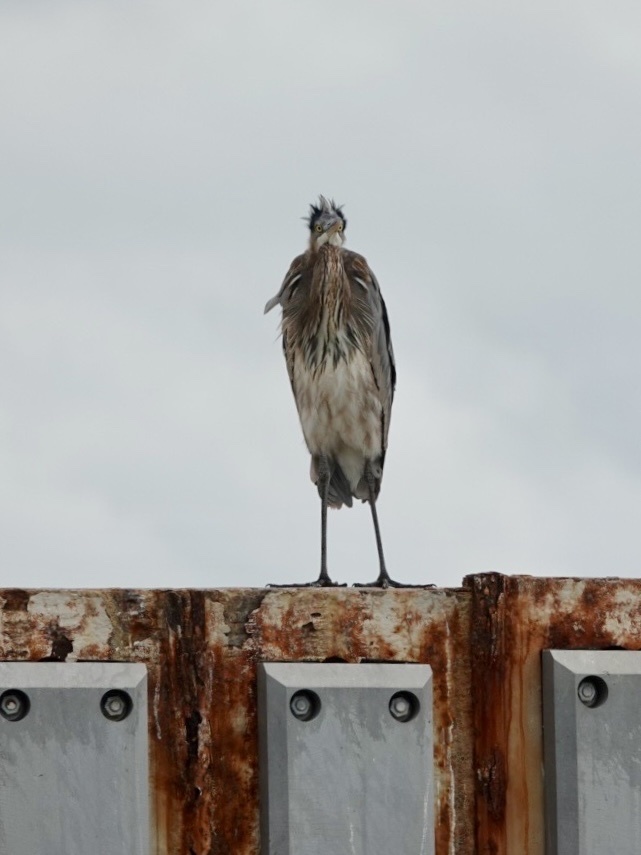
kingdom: Animalia
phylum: Chordata
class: Aves
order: Pelecaniformes
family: Ardeidae
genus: Ardea
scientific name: Ardea herodias
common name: Great blue heron
